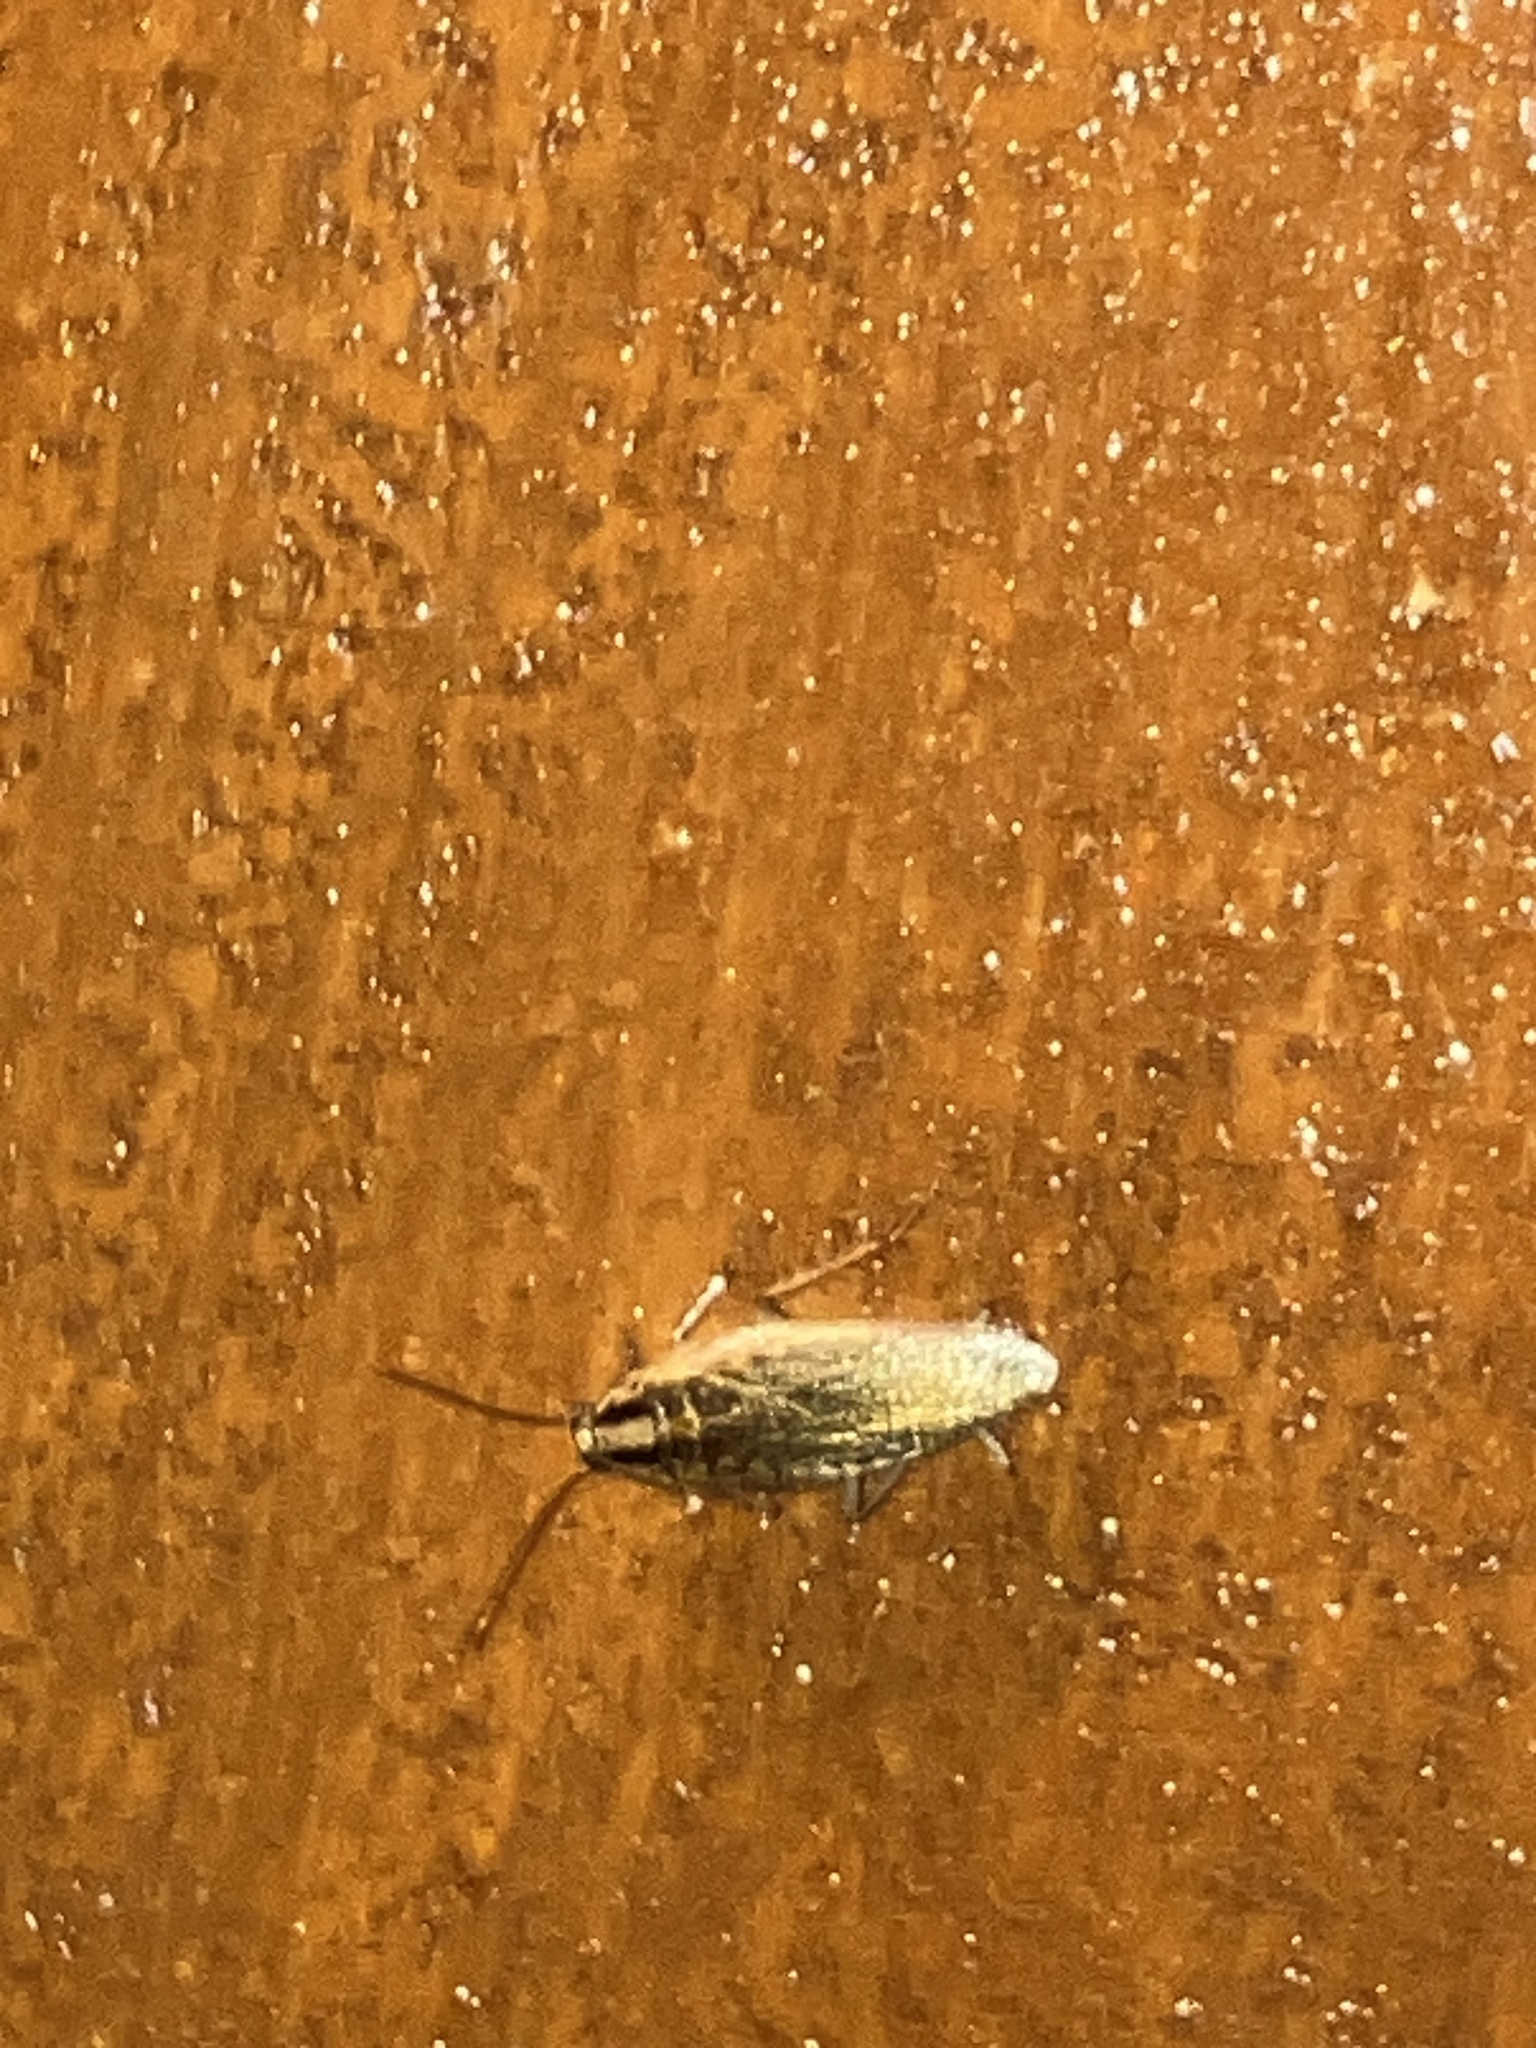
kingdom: Animalia
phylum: Arthropoda
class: Insecta
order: Blattodea
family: Ectobiidae
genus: Blattella
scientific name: Blattella
